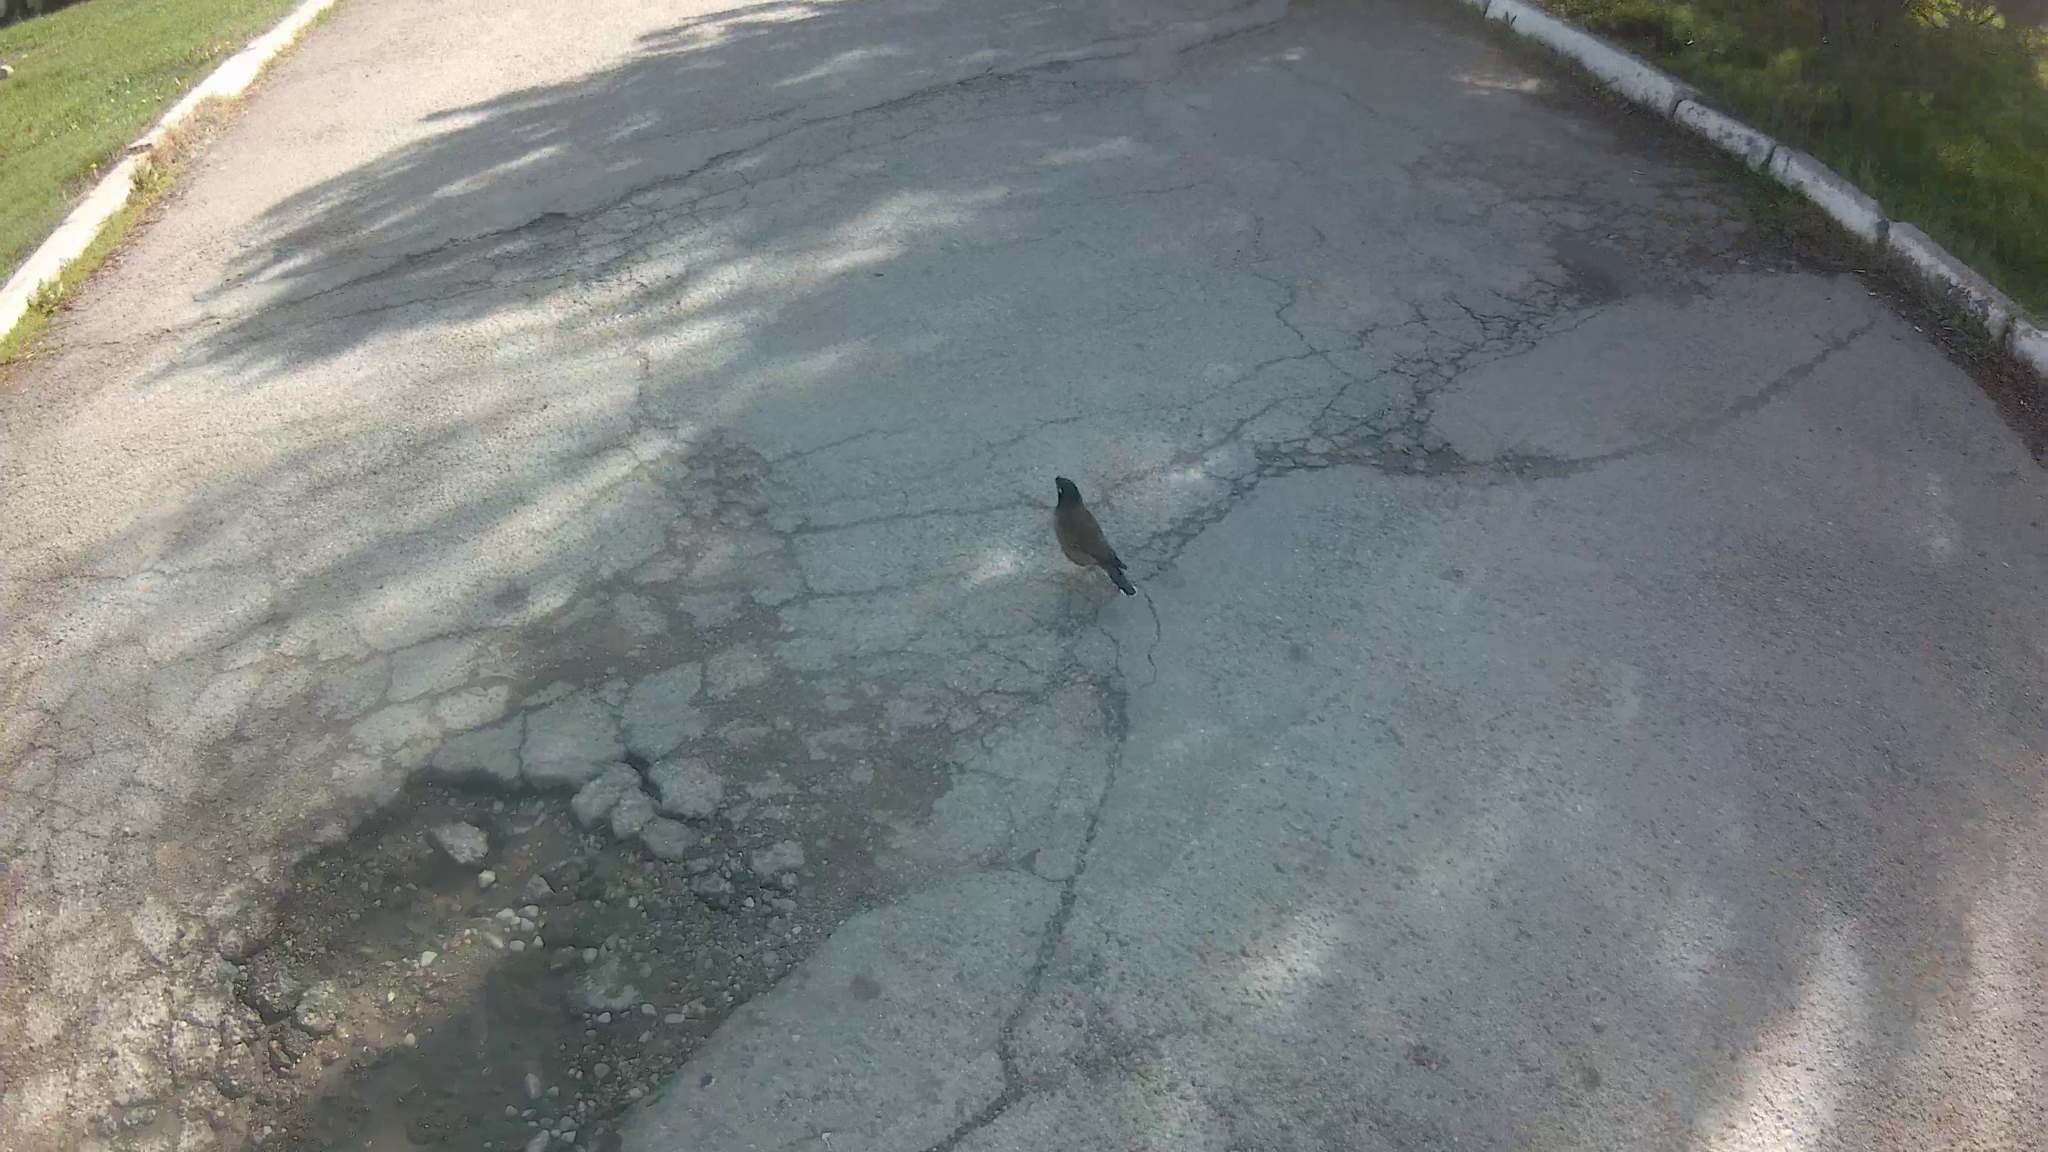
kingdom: Animalia
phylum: Chordata
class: Aves
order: Passeriformes
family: Sturnidae
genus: Acridotheres
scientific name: Acridotheres tristis
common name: Common myna
